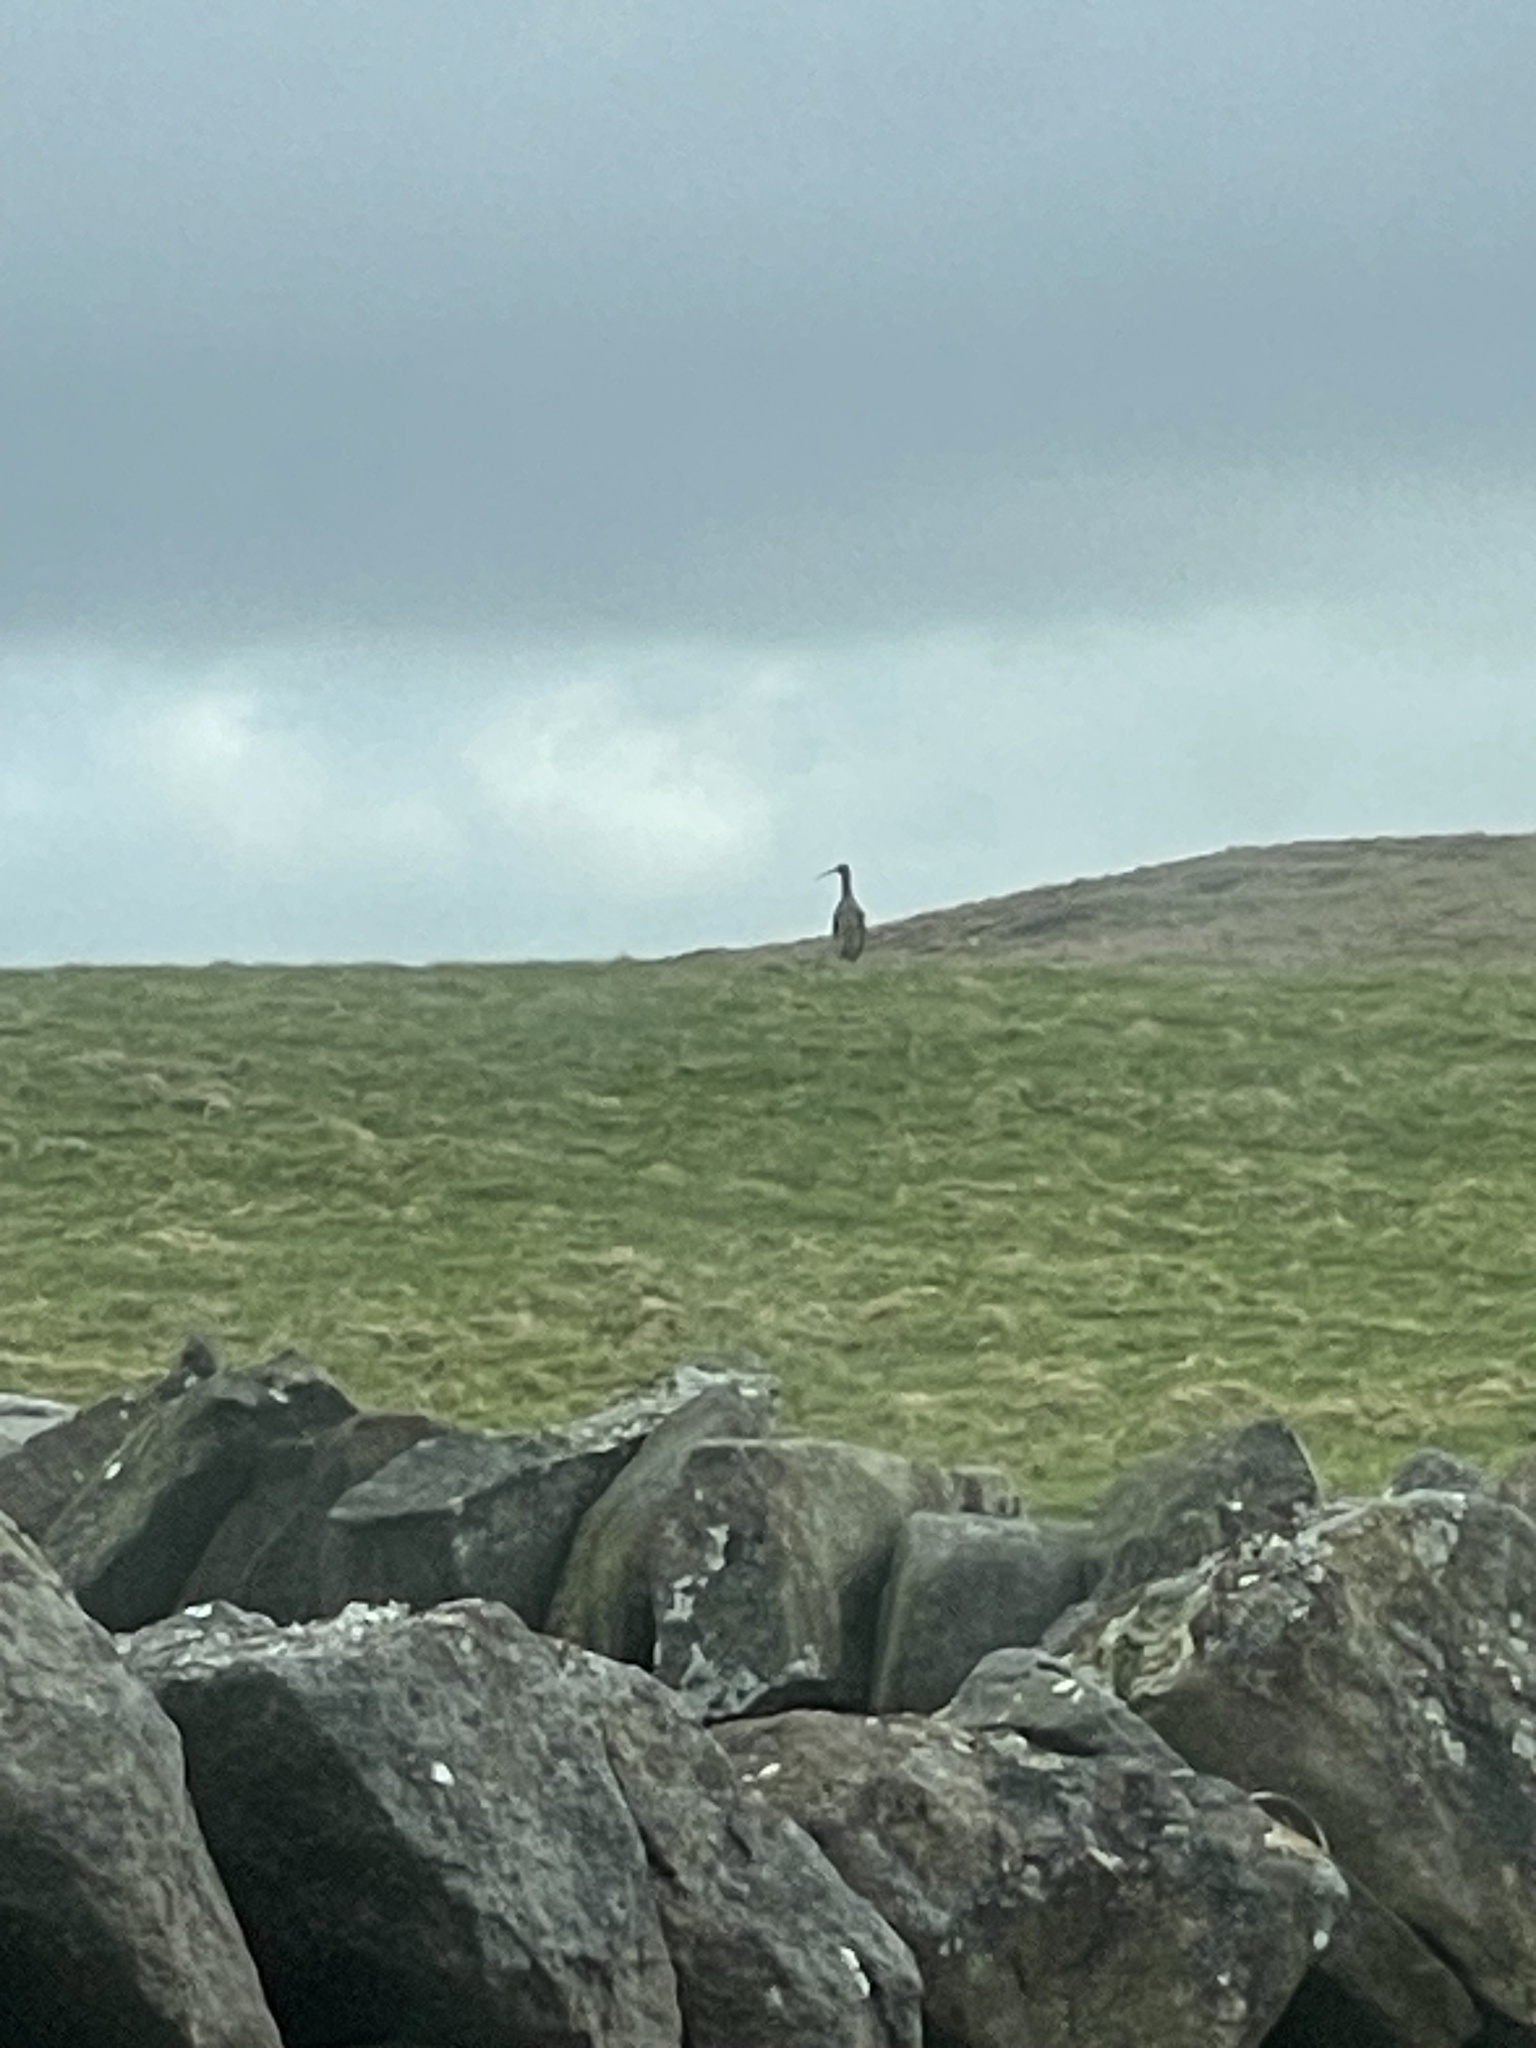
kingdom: Animalia
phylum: Chordata
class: Aves
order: Charadriiformes
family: Scolopacidae
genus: Numenius
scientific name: Numenius arquata
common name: Eurasian curlew
